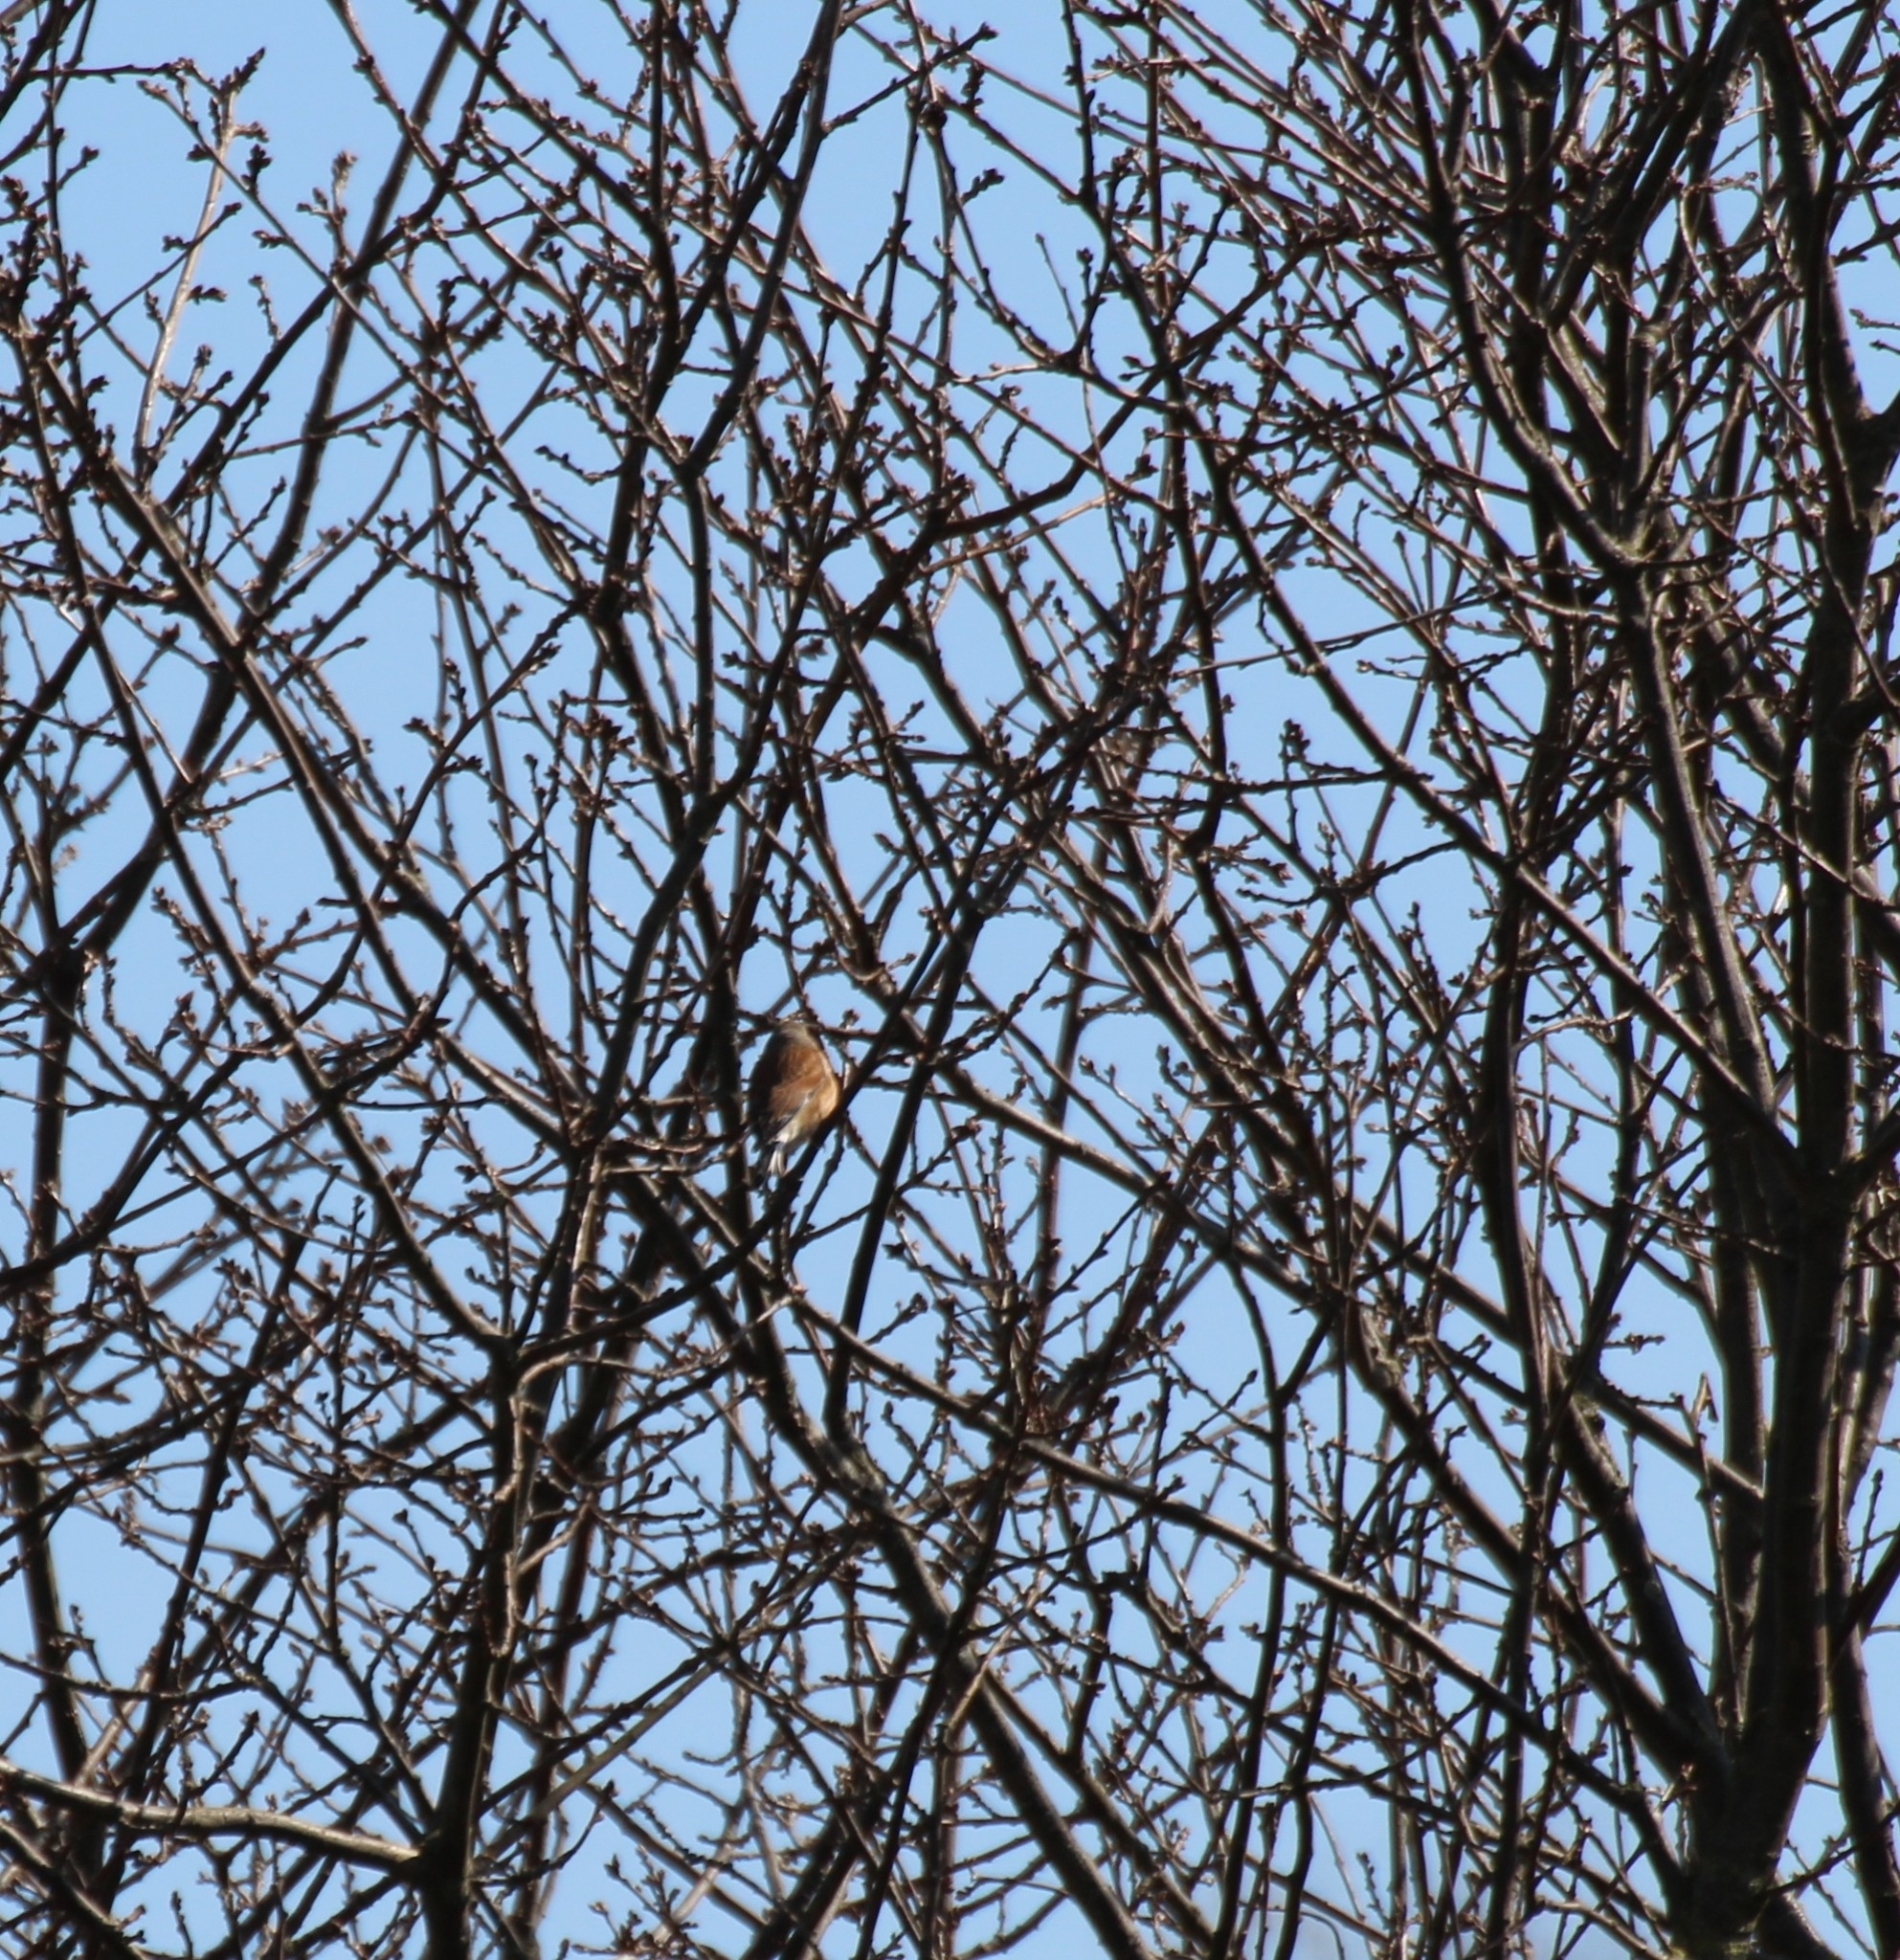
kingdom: Animalia
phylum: Chordata
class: Aves
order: Passeriformes
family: Fringillidae
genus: Linaria
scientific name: Linaria cannabina
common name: Common linnet
